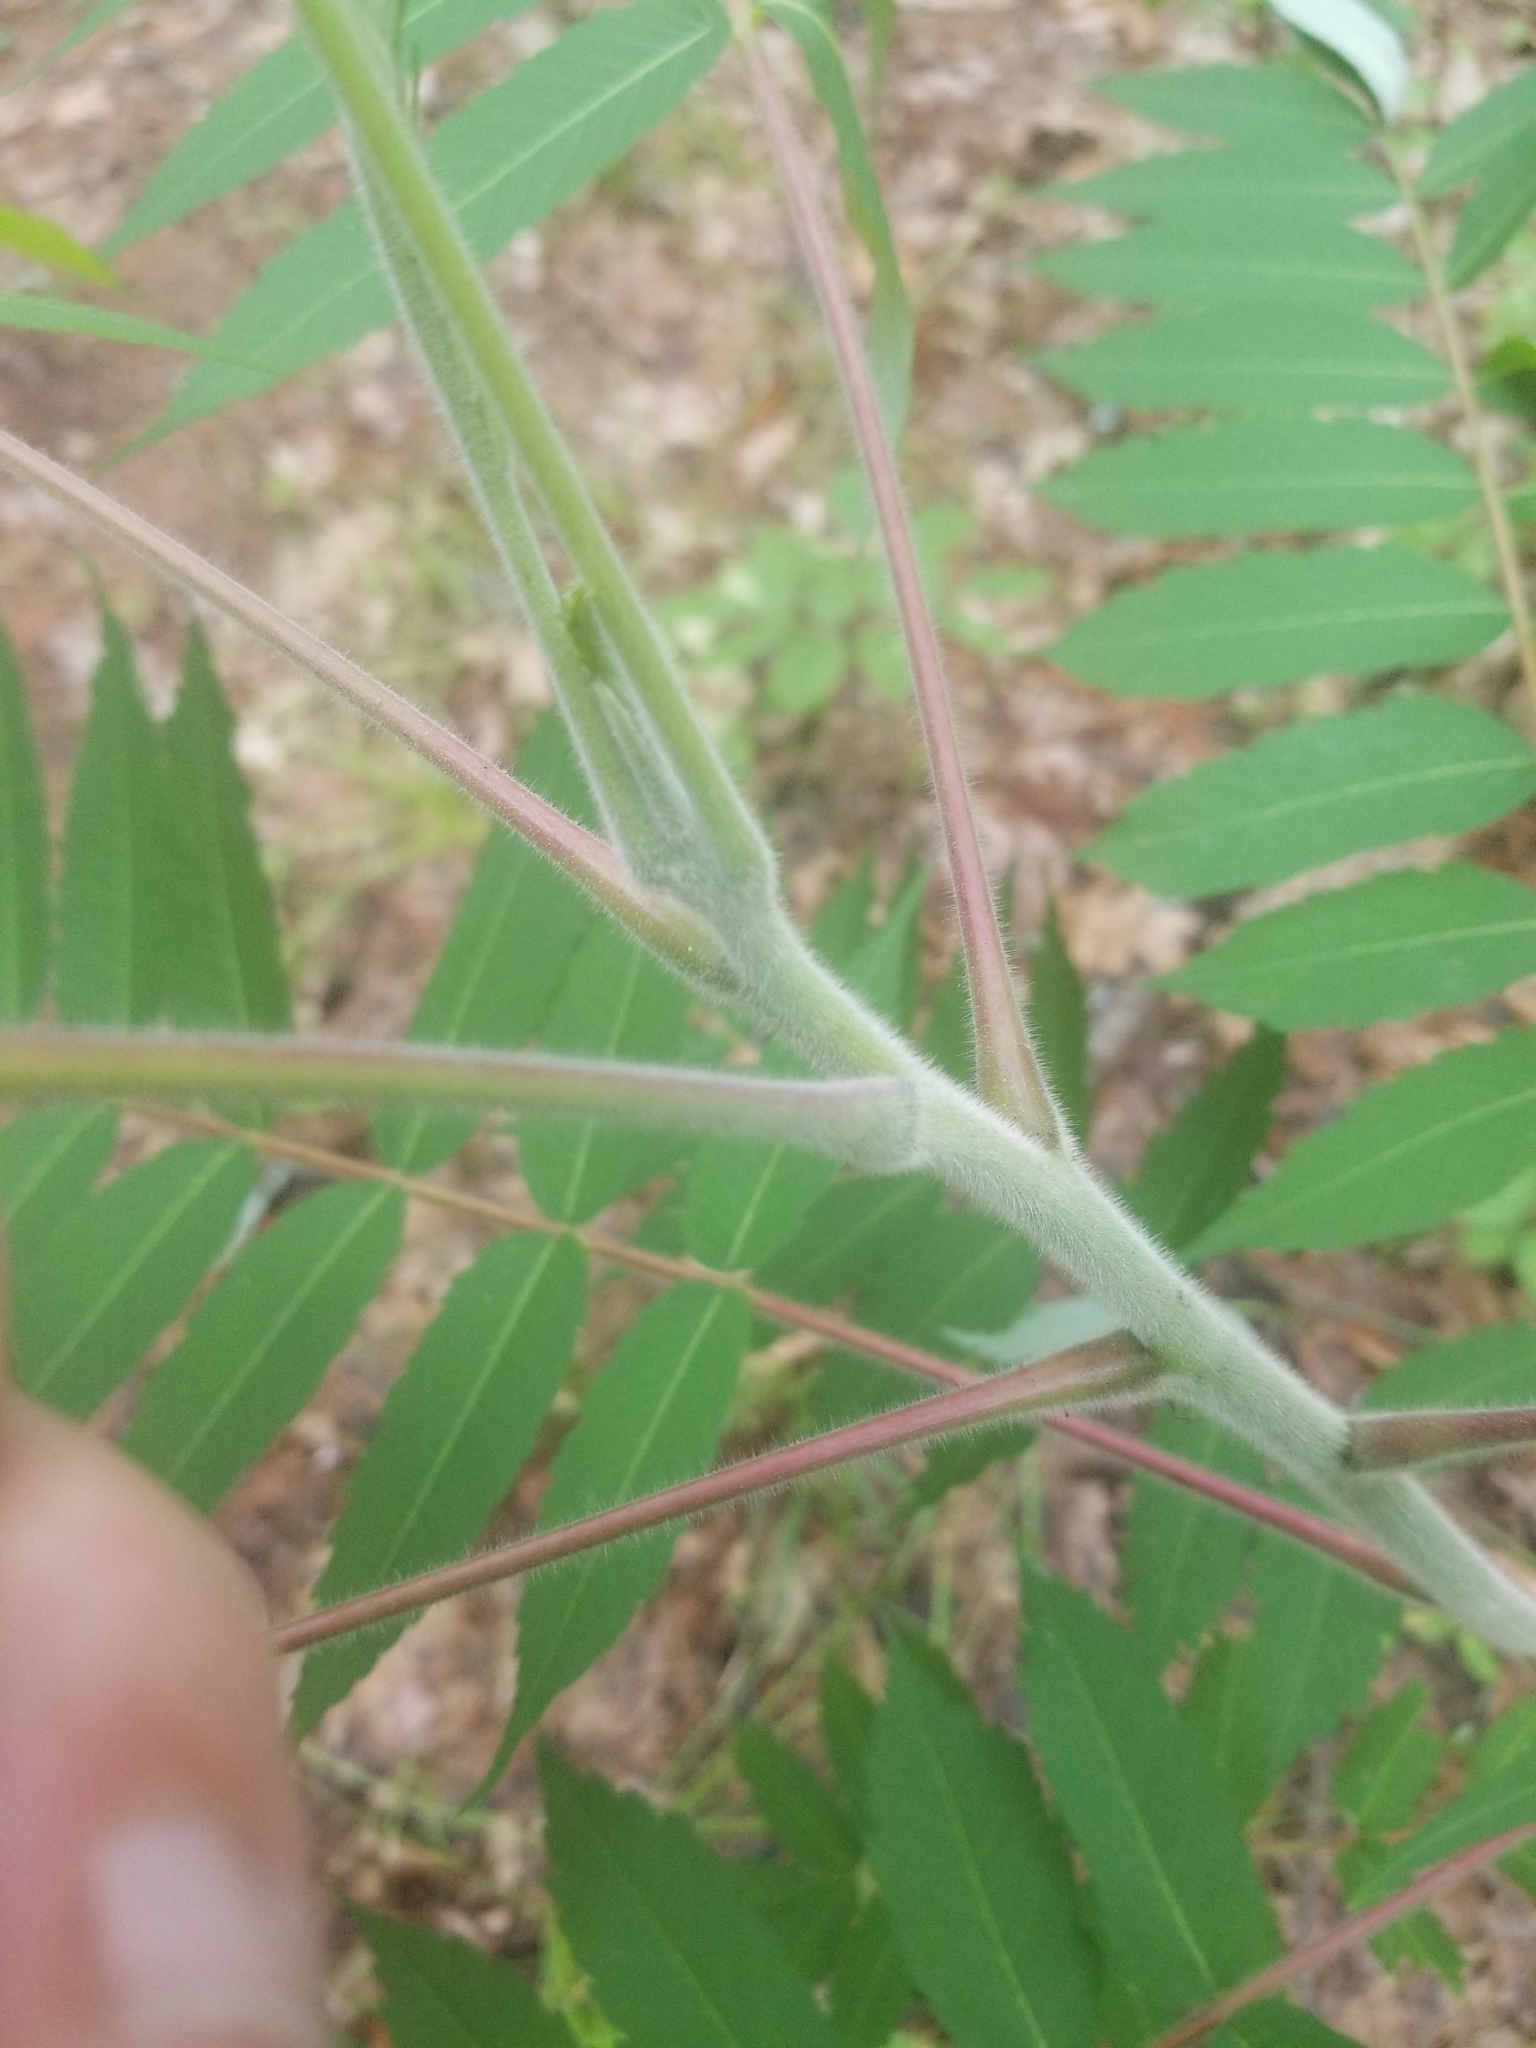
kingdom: Plantae
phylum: Tracheophyta
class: Magnoliopsida
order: Sapindales
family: Anacardiaceae
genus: Rhus
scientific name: Rhus typhina
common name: Staghorn sumac
